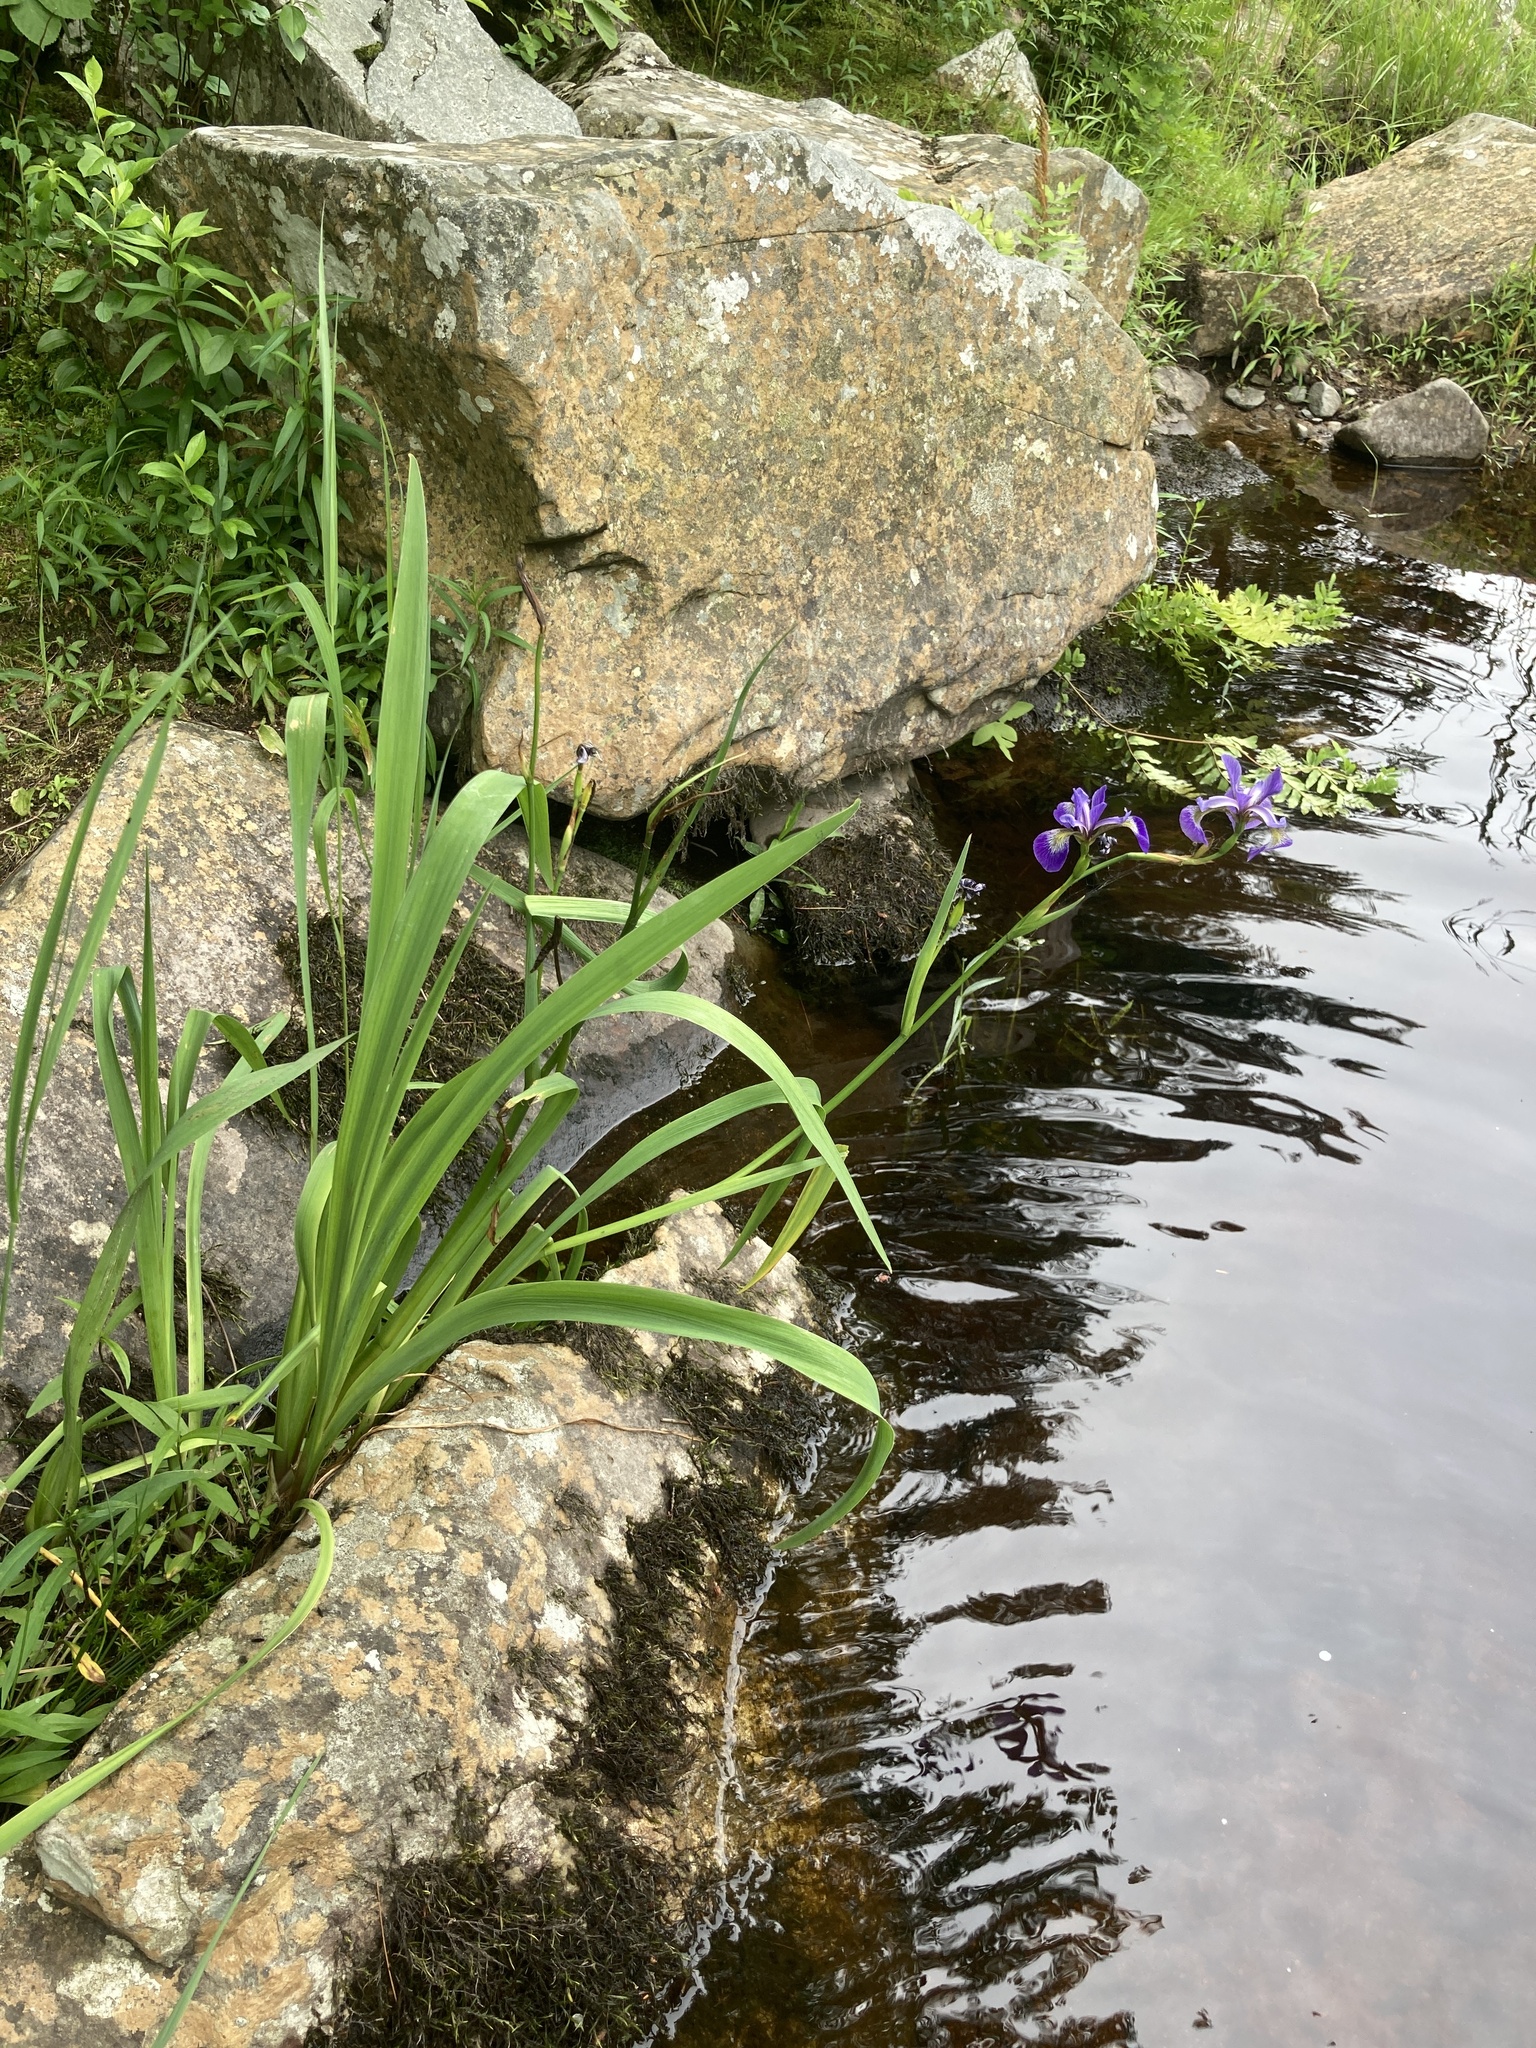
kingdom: Plantae
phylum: Tracheophyta
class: Liliopsida
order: Asparagales
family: Iridaceae
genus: Iris
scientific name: Iris versicolor
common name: Purple iris
